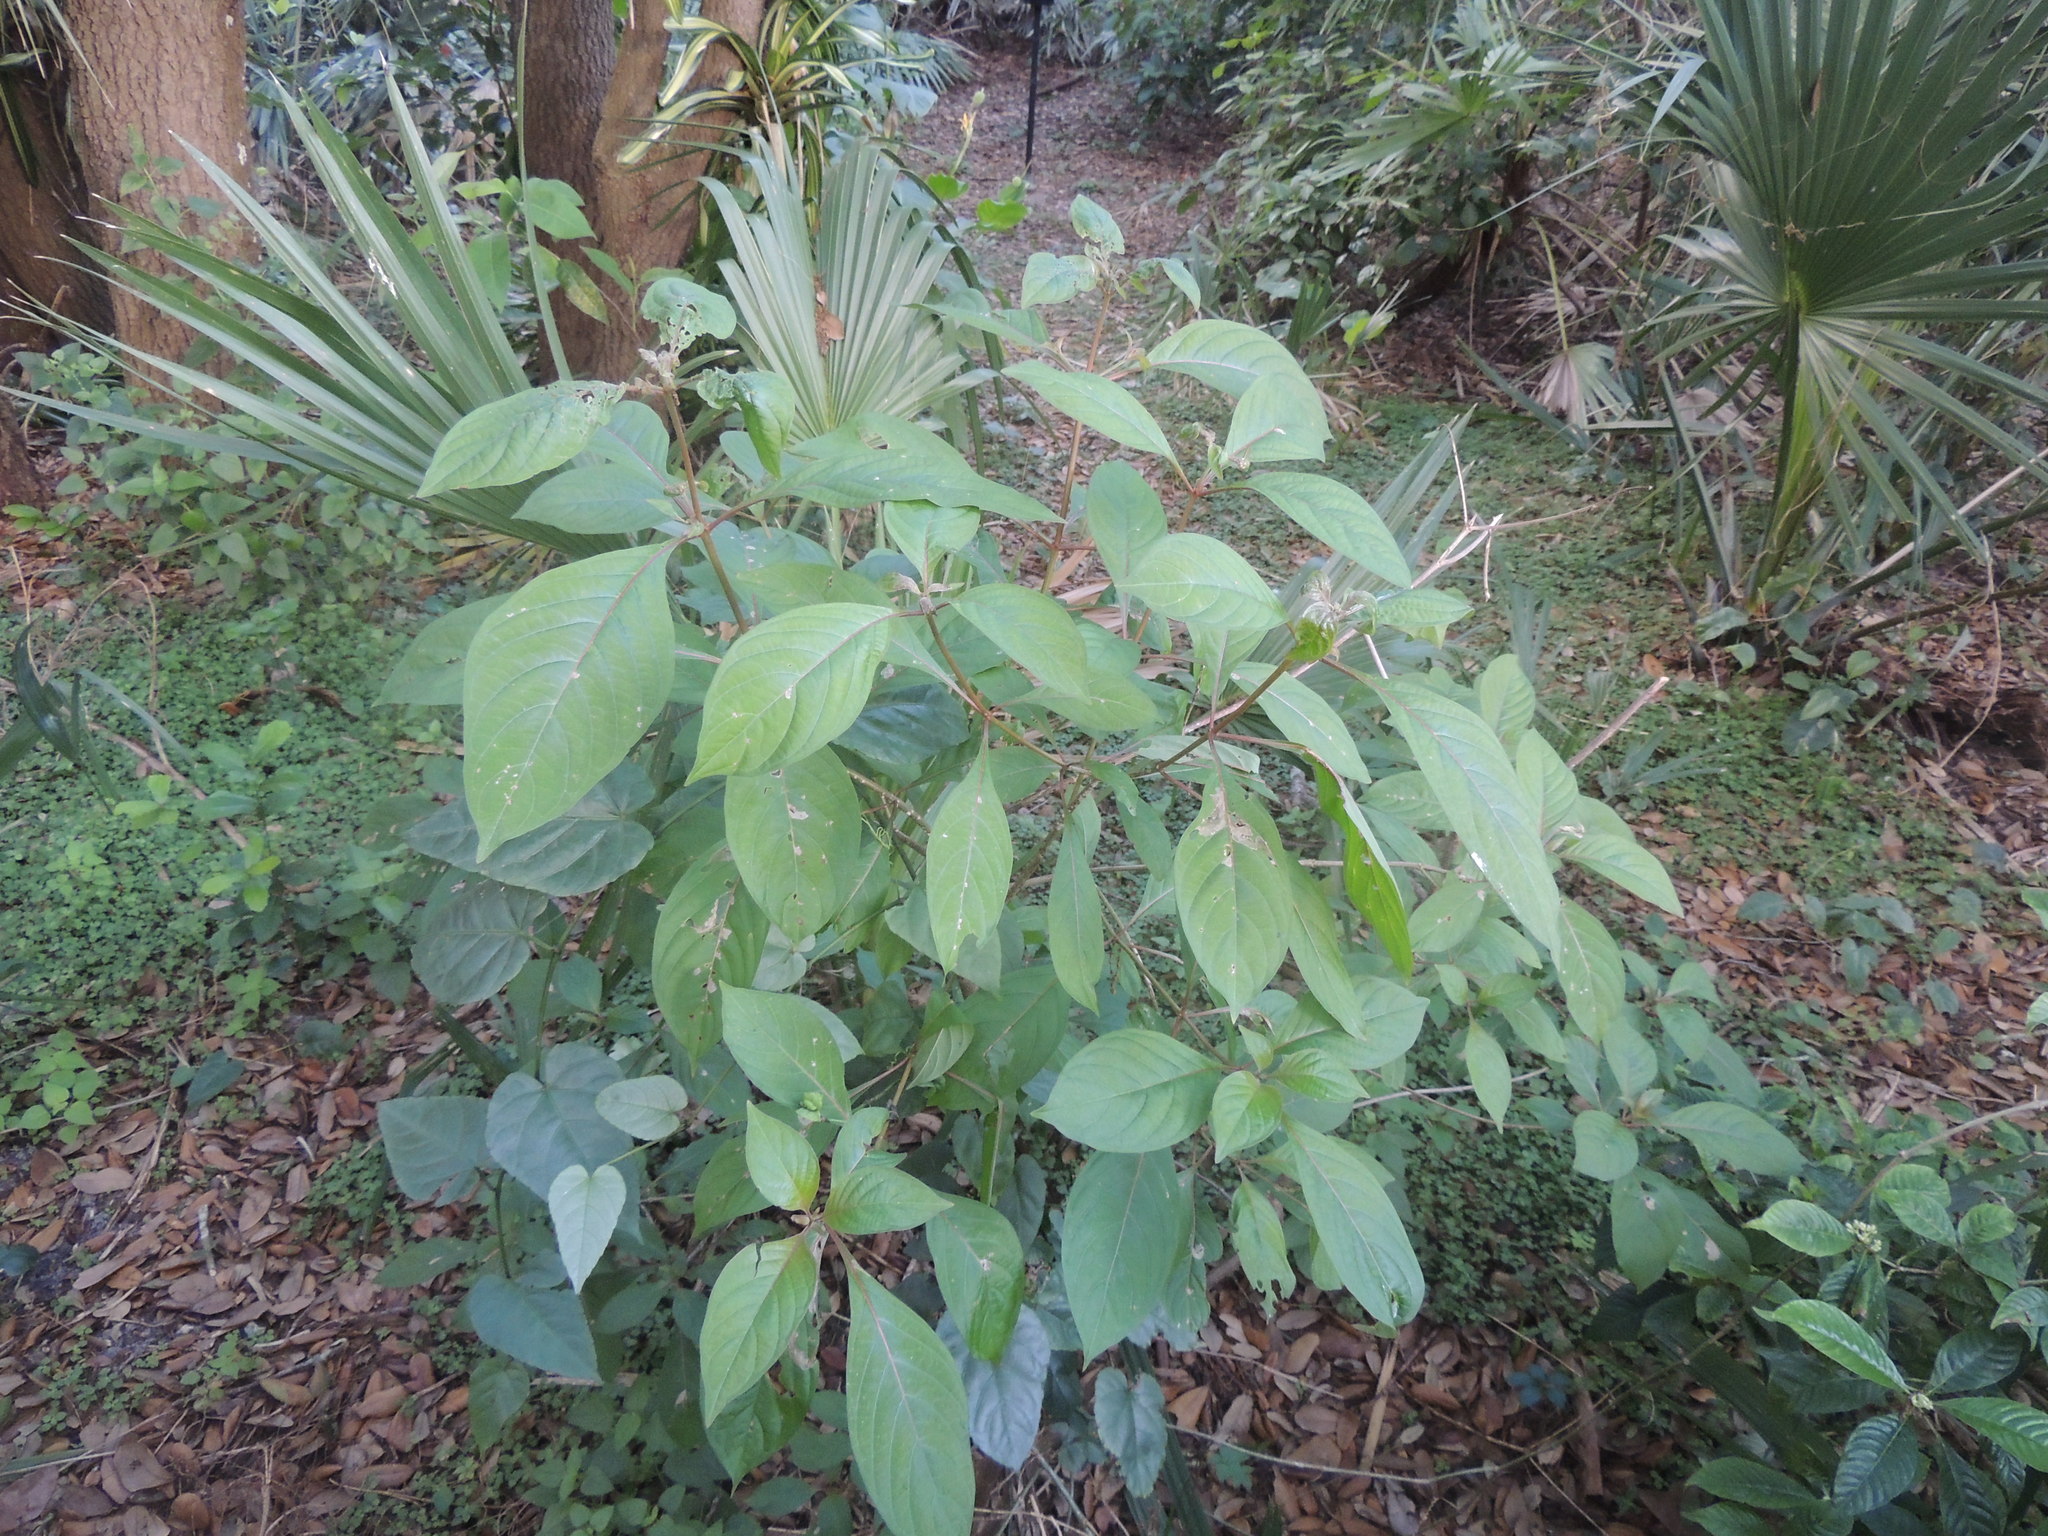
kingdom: Plantae
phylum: Tracheophyta
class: Magnoliopsida
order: Gentianales
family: Rubiaceae
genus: Hamelia
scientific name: Hamelia patens
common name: Redhead
